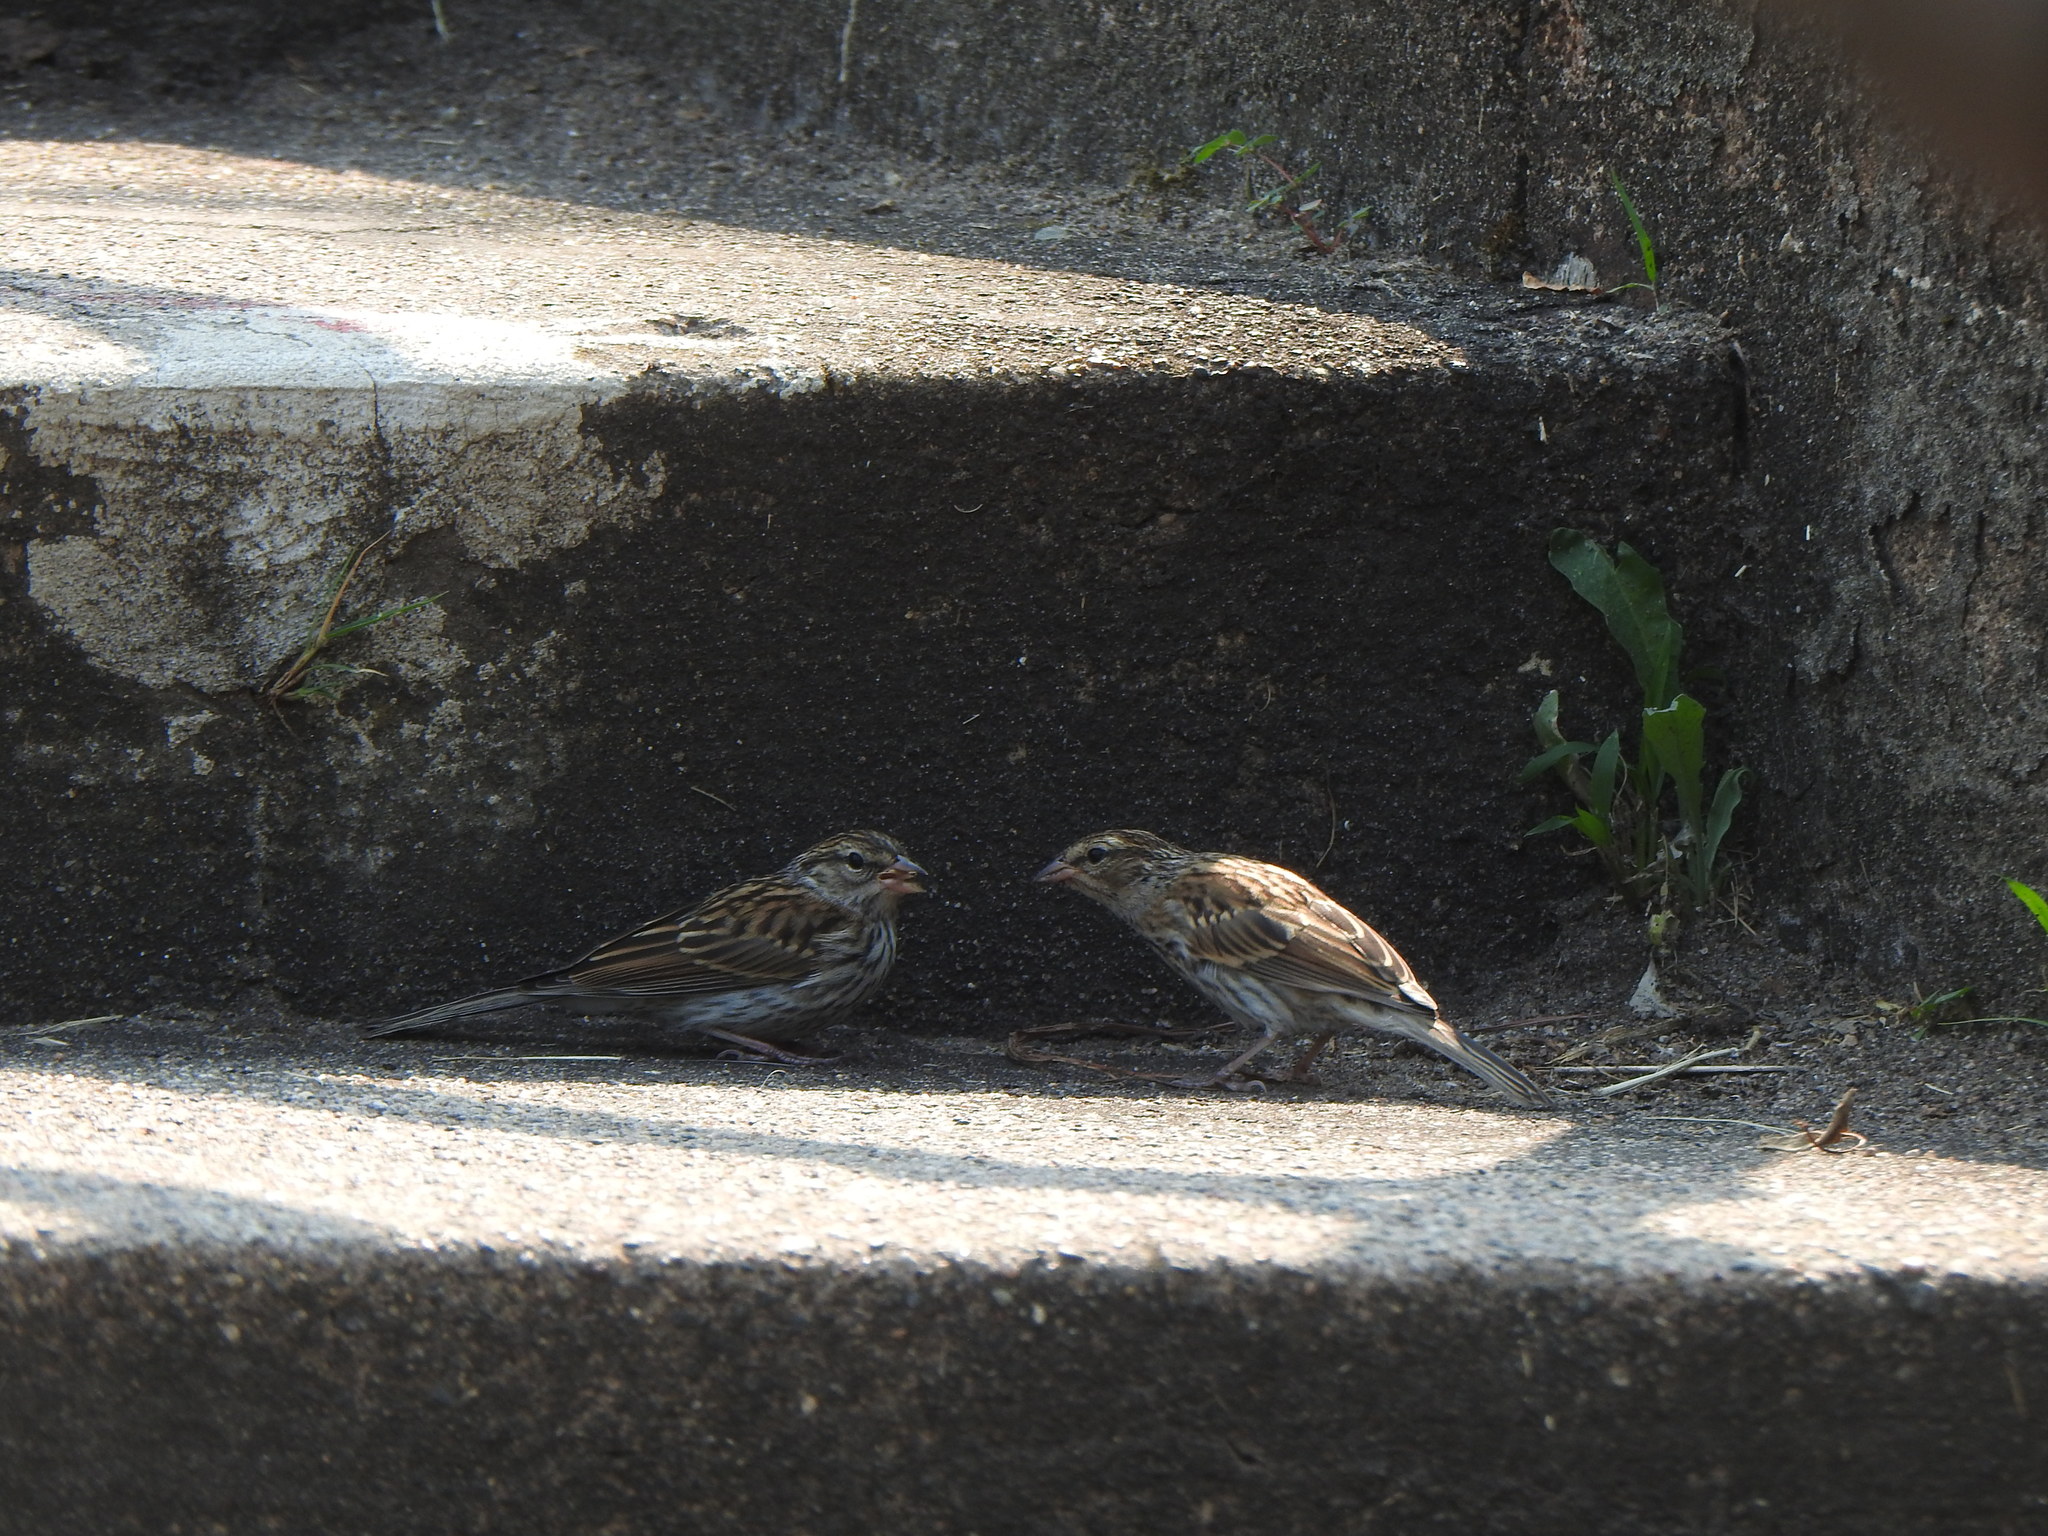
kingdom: Animalia
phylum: Chordata
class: Aves
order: Passeriformes
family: Passerellidae
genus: Spizella
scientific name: Spizella passerina
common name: Chipping sparrow
